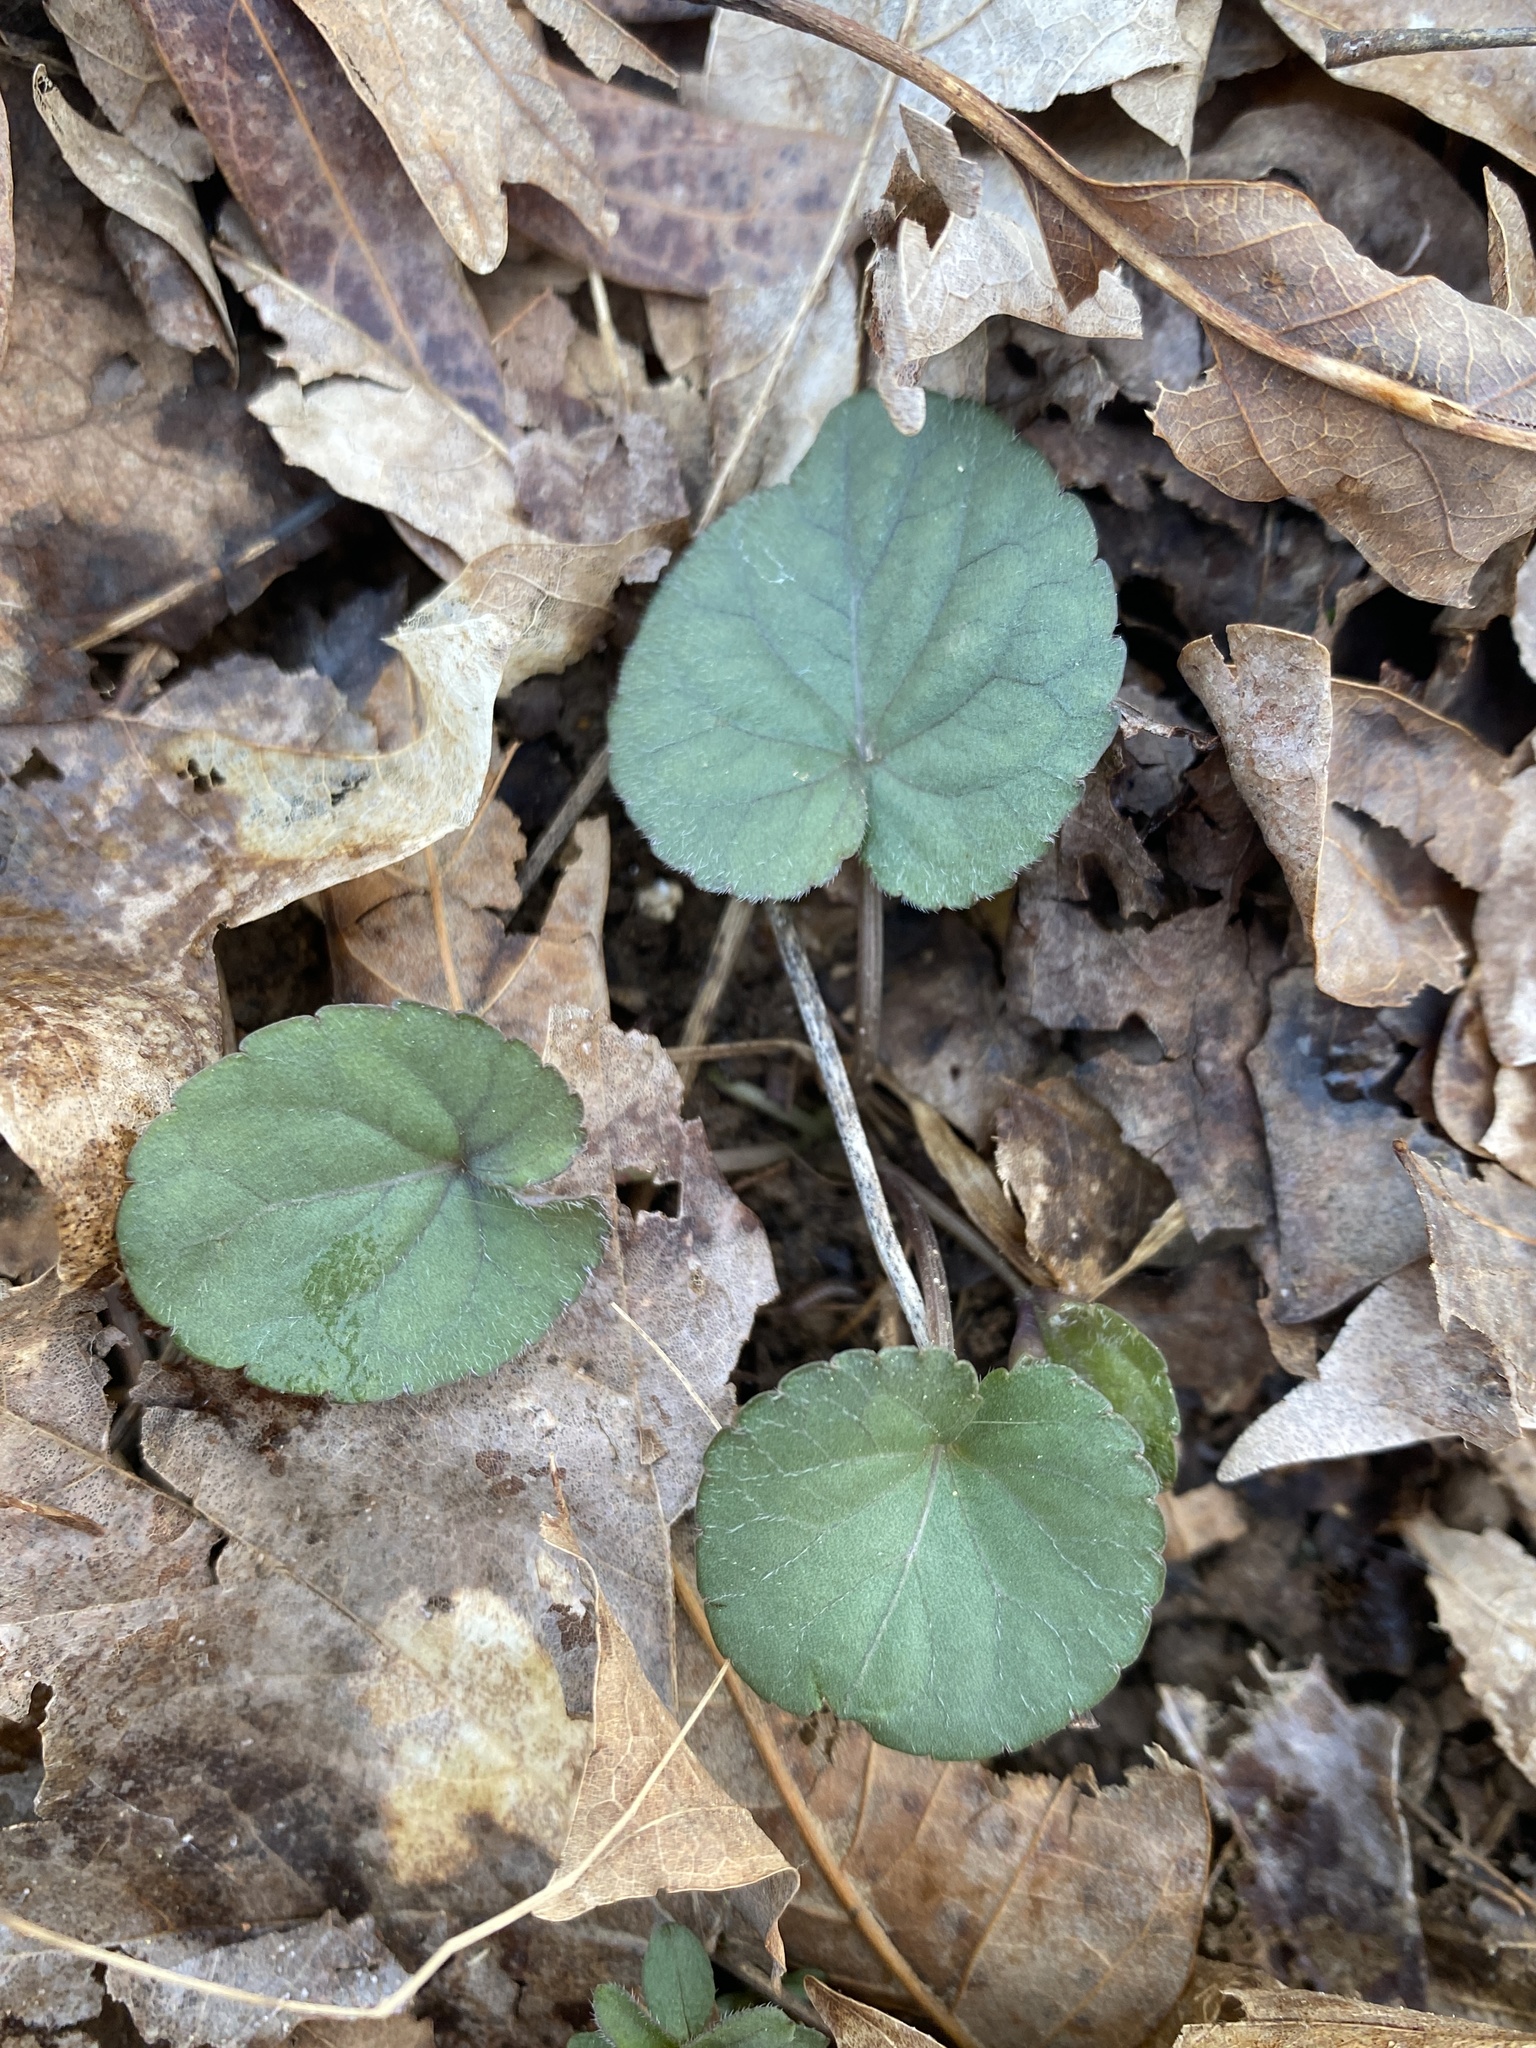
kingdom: Plantae
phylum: Tracheophyta
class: Magnoliopsida
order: Malpighiales
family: Violaceae
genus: Viola
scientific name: Viola hirsutula
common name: Southern wood violet
